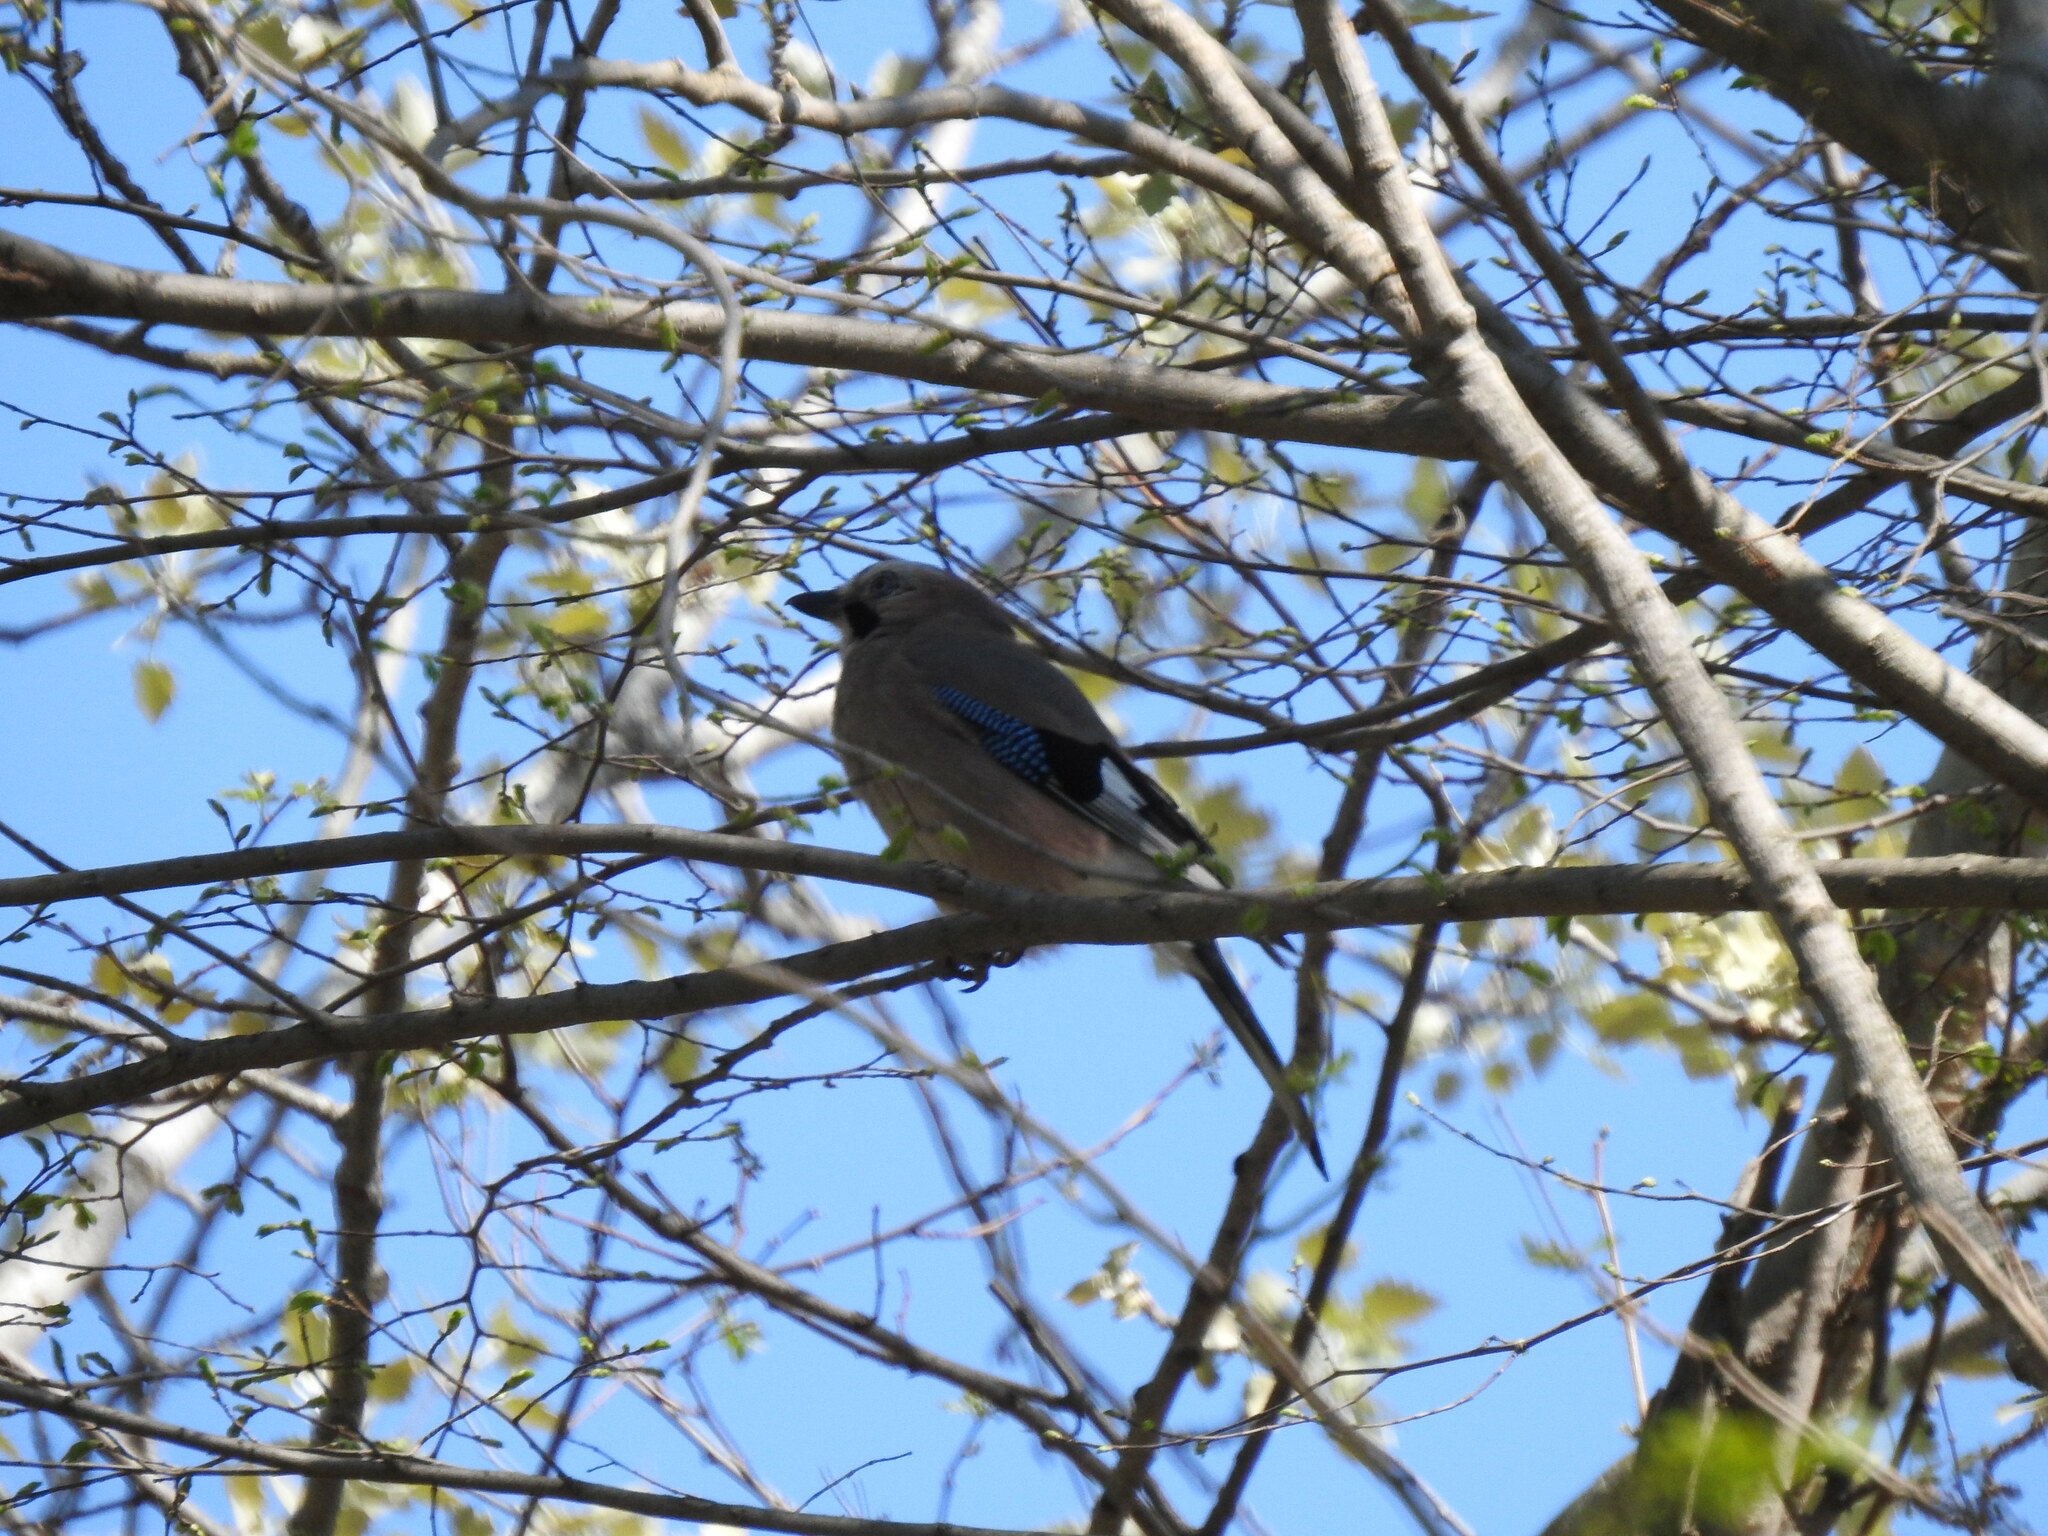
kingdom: Animalia
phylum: Chordata
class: Aves
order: Passeriformes
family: Corvidae
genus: Garrulus
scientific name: Garrulus glandarius
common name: Eurasian jay
